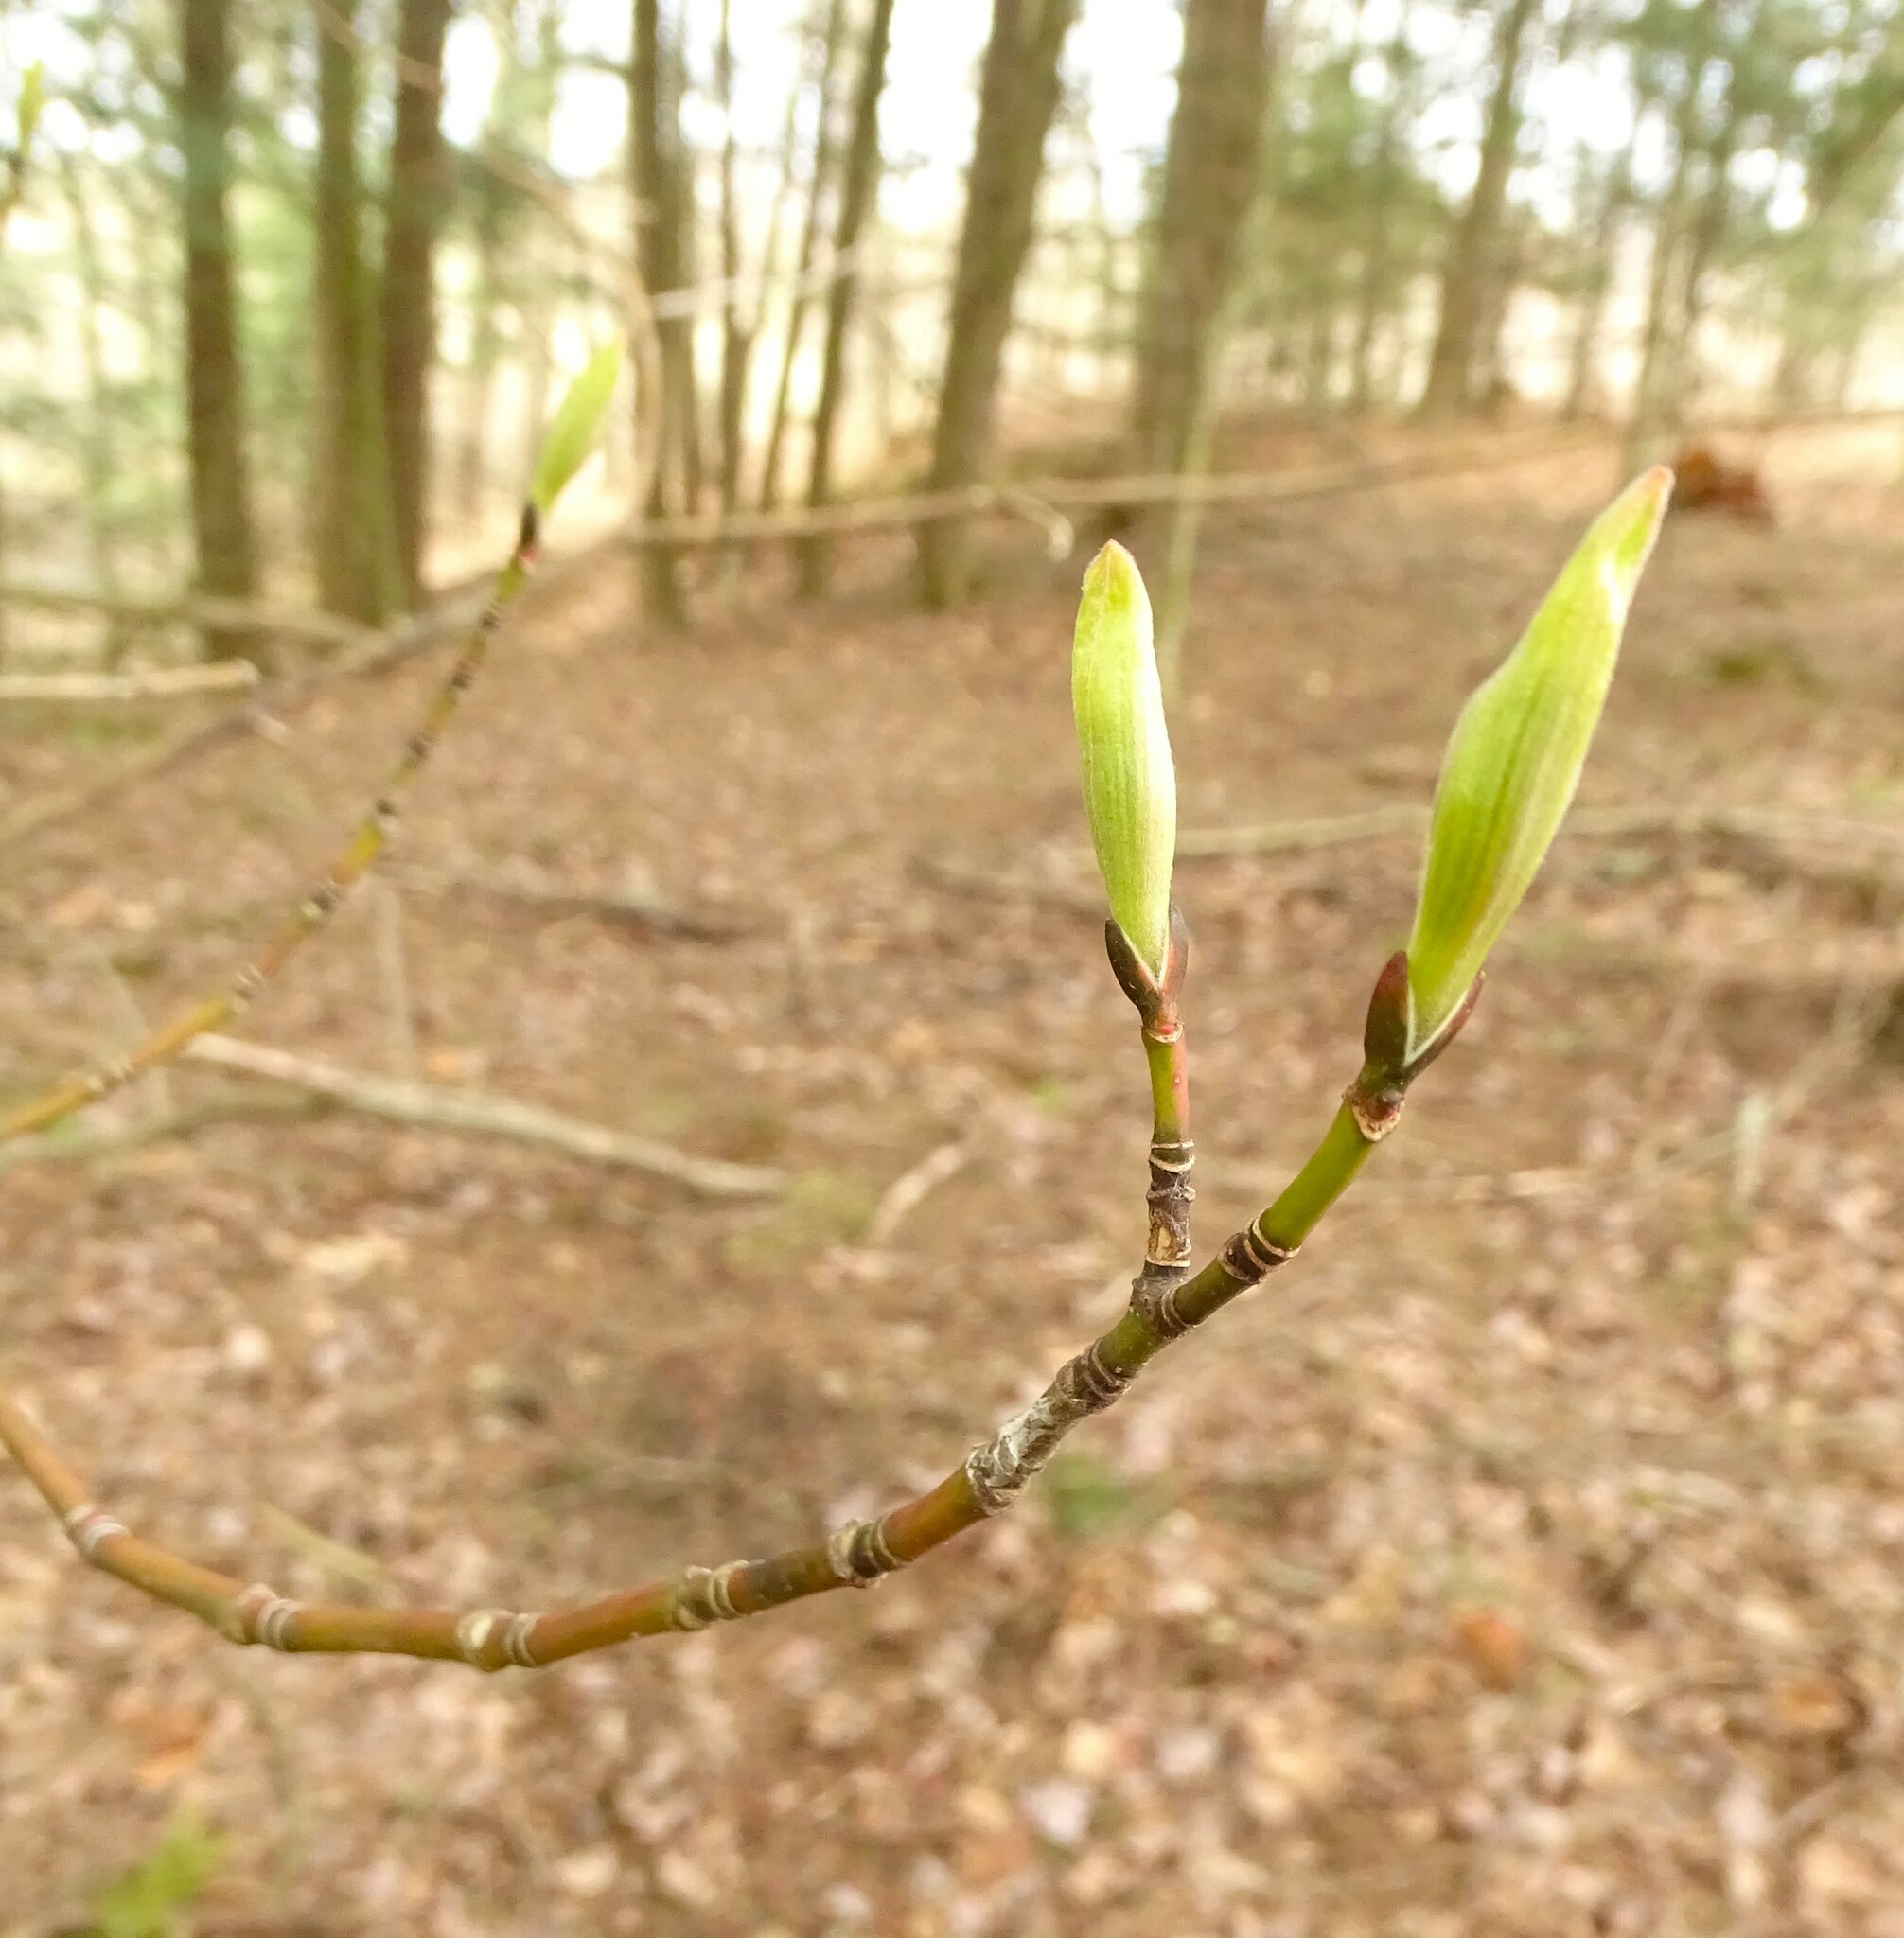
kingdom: Plantae
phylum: Tracheophyta
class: Magnoliopsida
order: Sapindales
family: Sapindaceae
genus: Acer
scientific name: Acer pensylvanicum
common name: Moosewood
